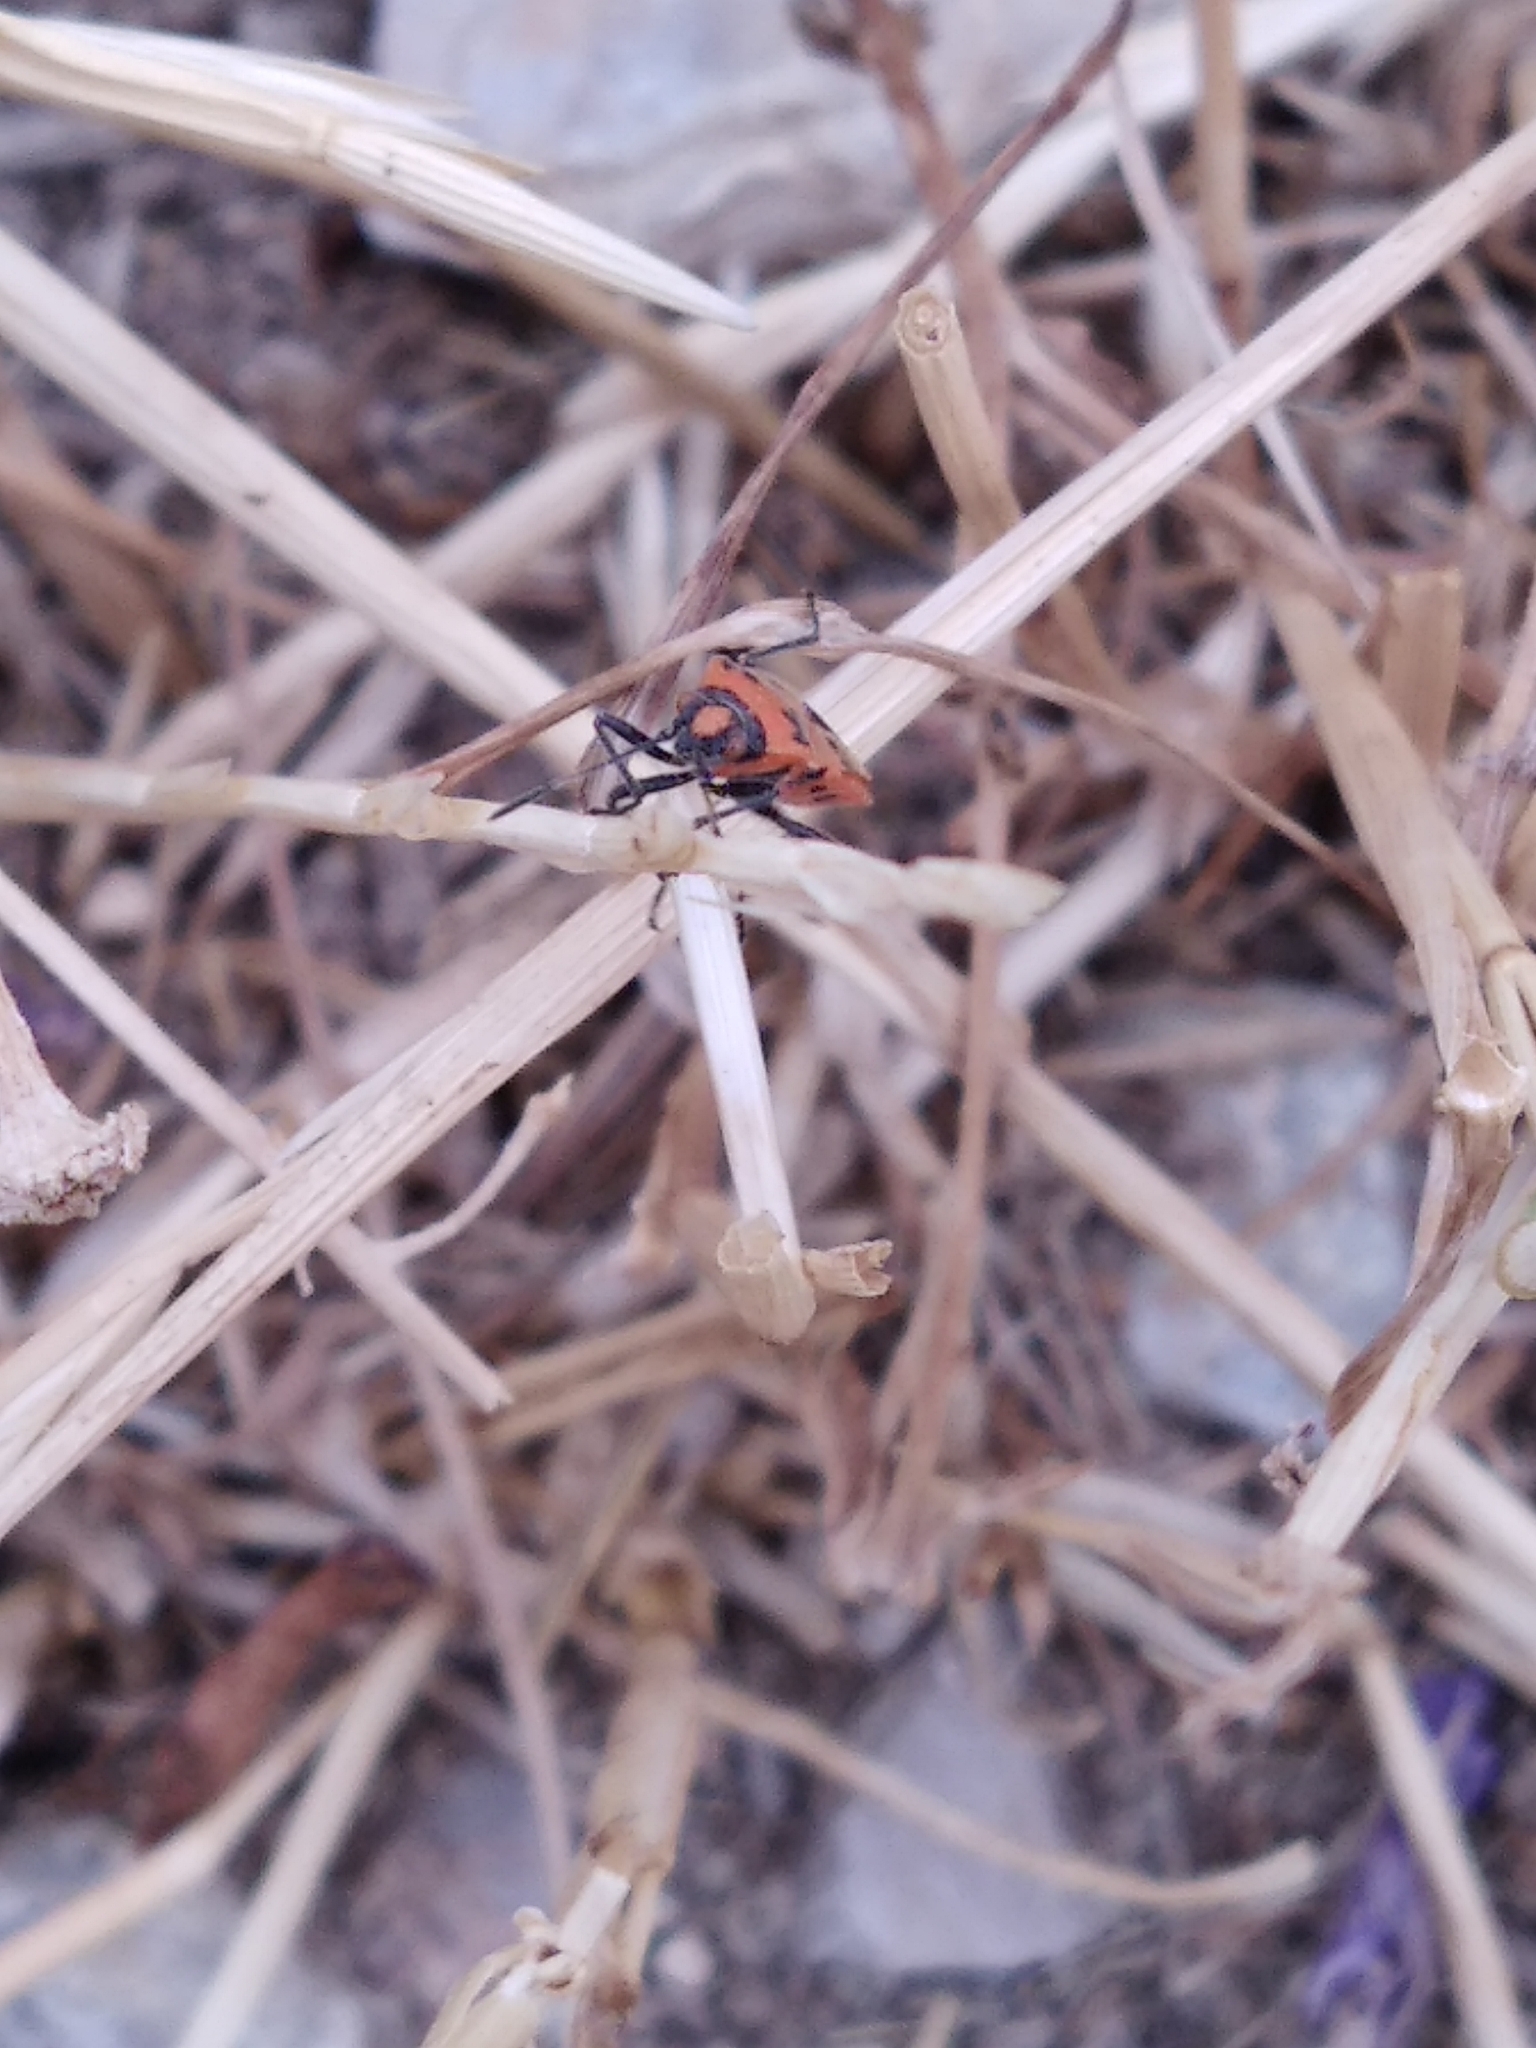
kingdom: Animalia
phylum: Arthropoda
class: Insecta
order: Hemiptera
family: Rhopalidae
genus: Corizus
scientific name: Corizus hyoscyami
